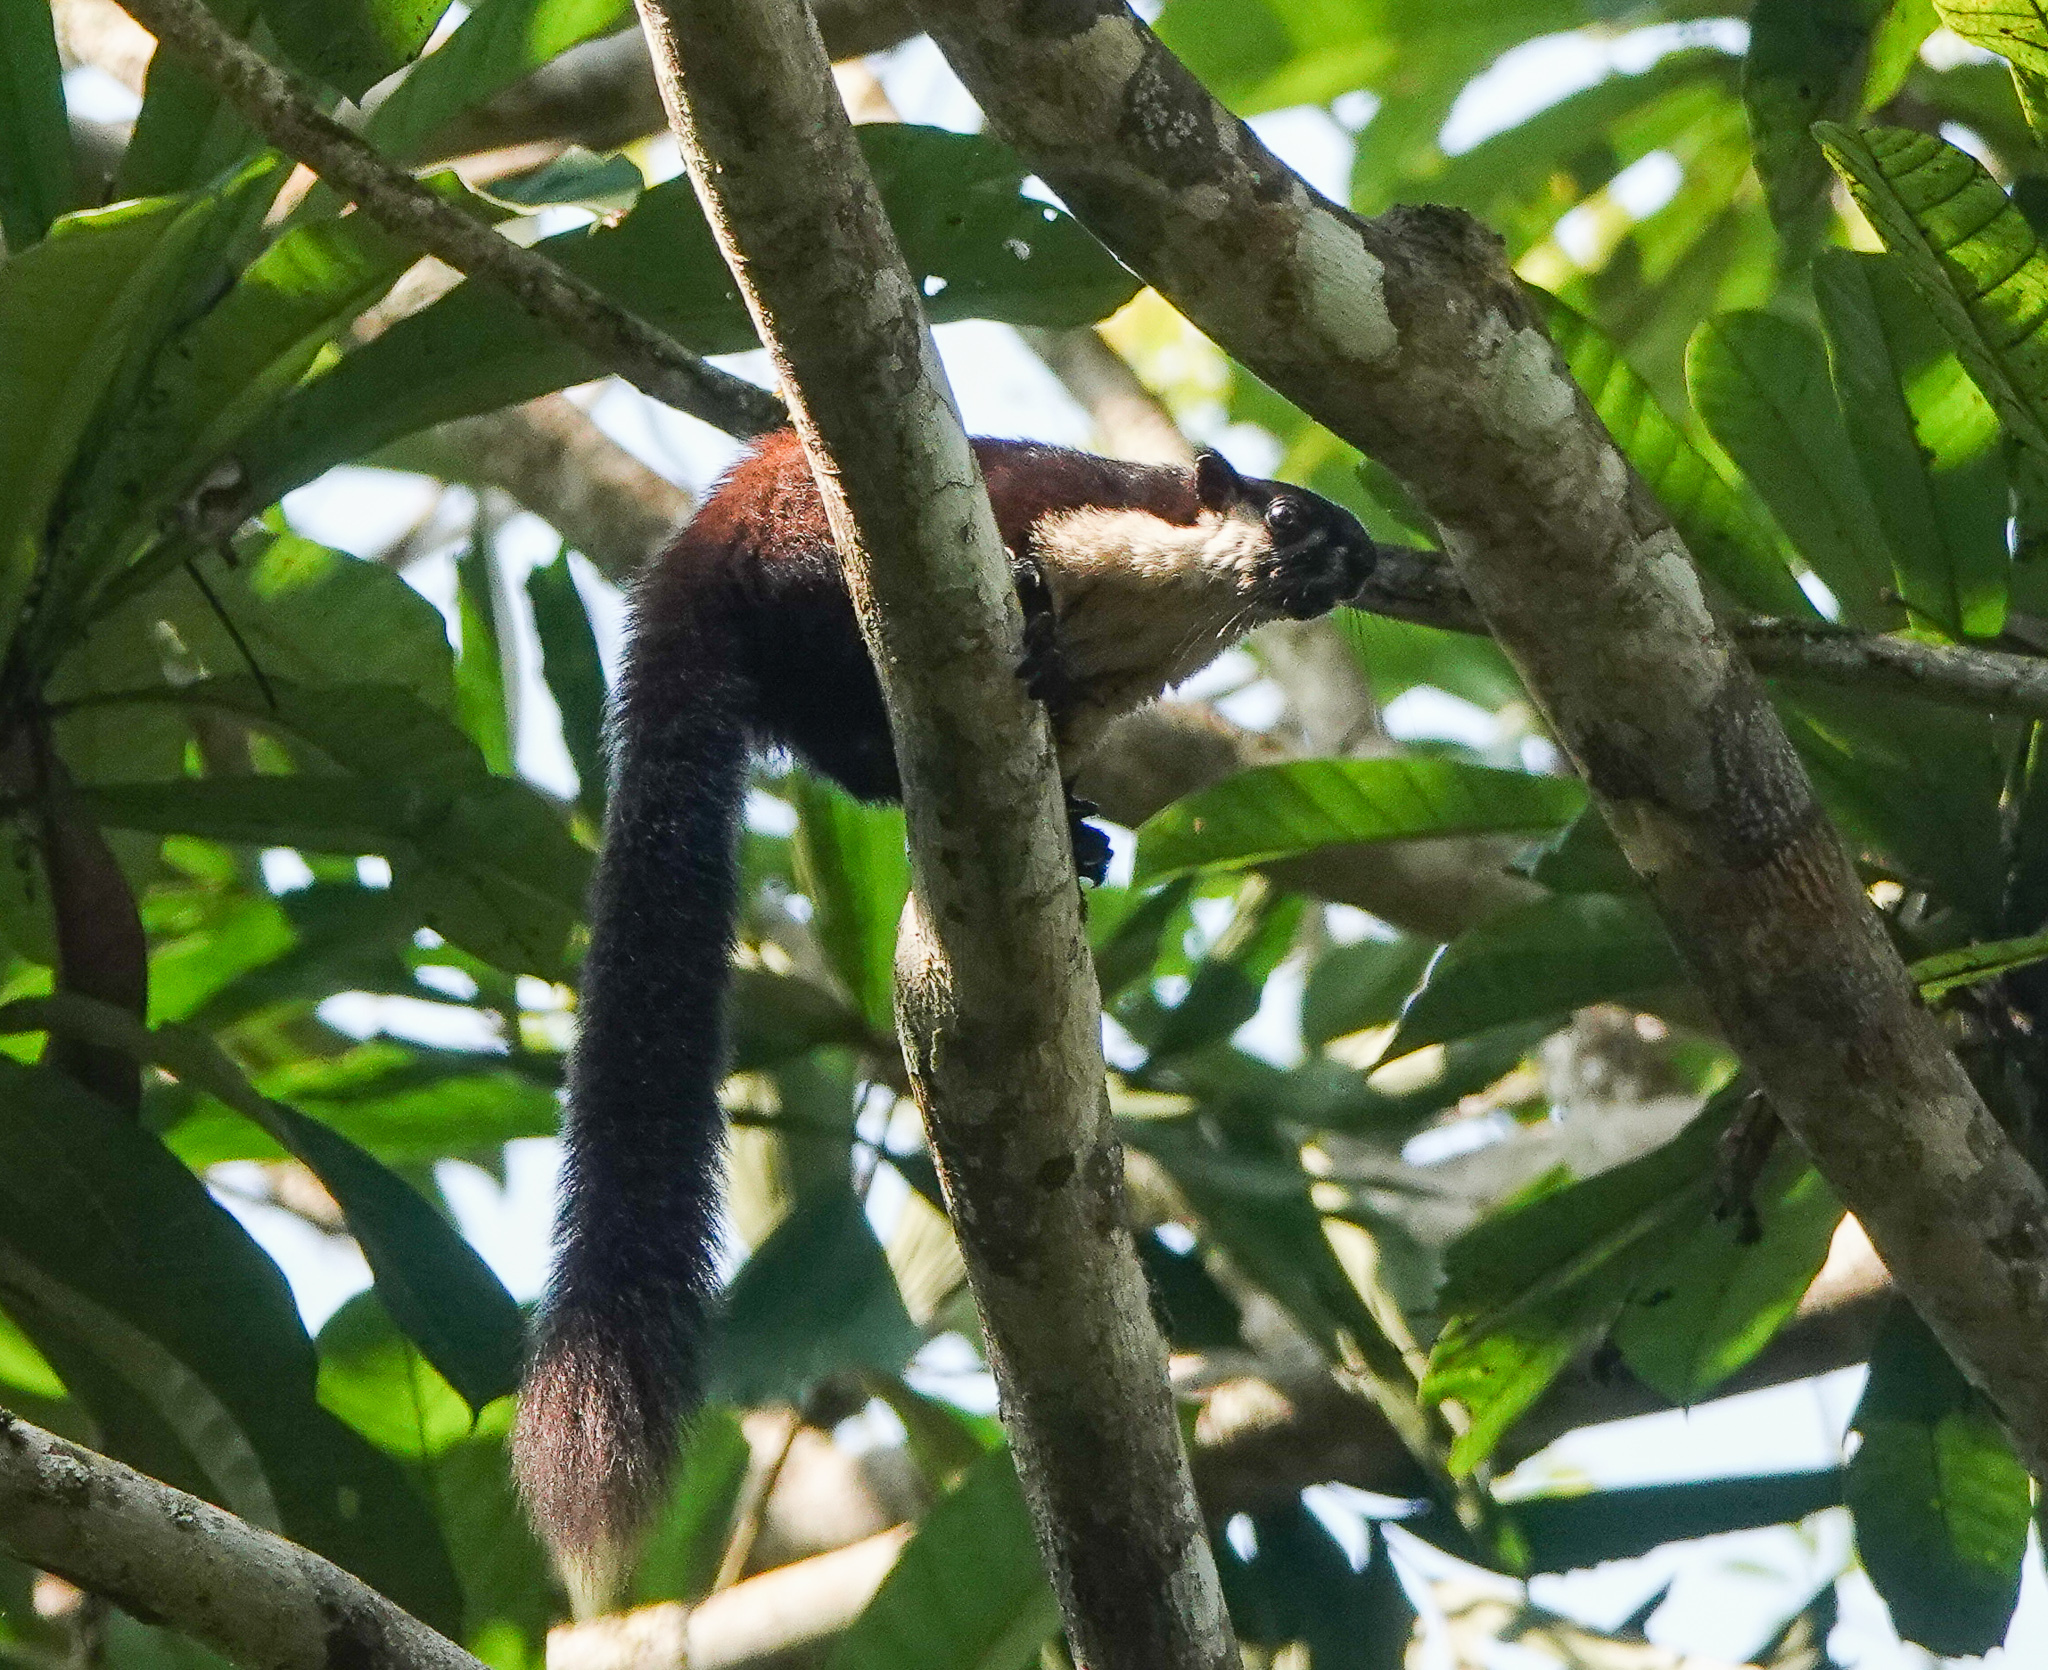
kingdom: Animalia
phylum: Chordata
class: Mammalia
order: Rodentia
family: Sciuridae
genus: Ratufa
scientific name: Ratufa bicolor
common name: Black giant squirrel
